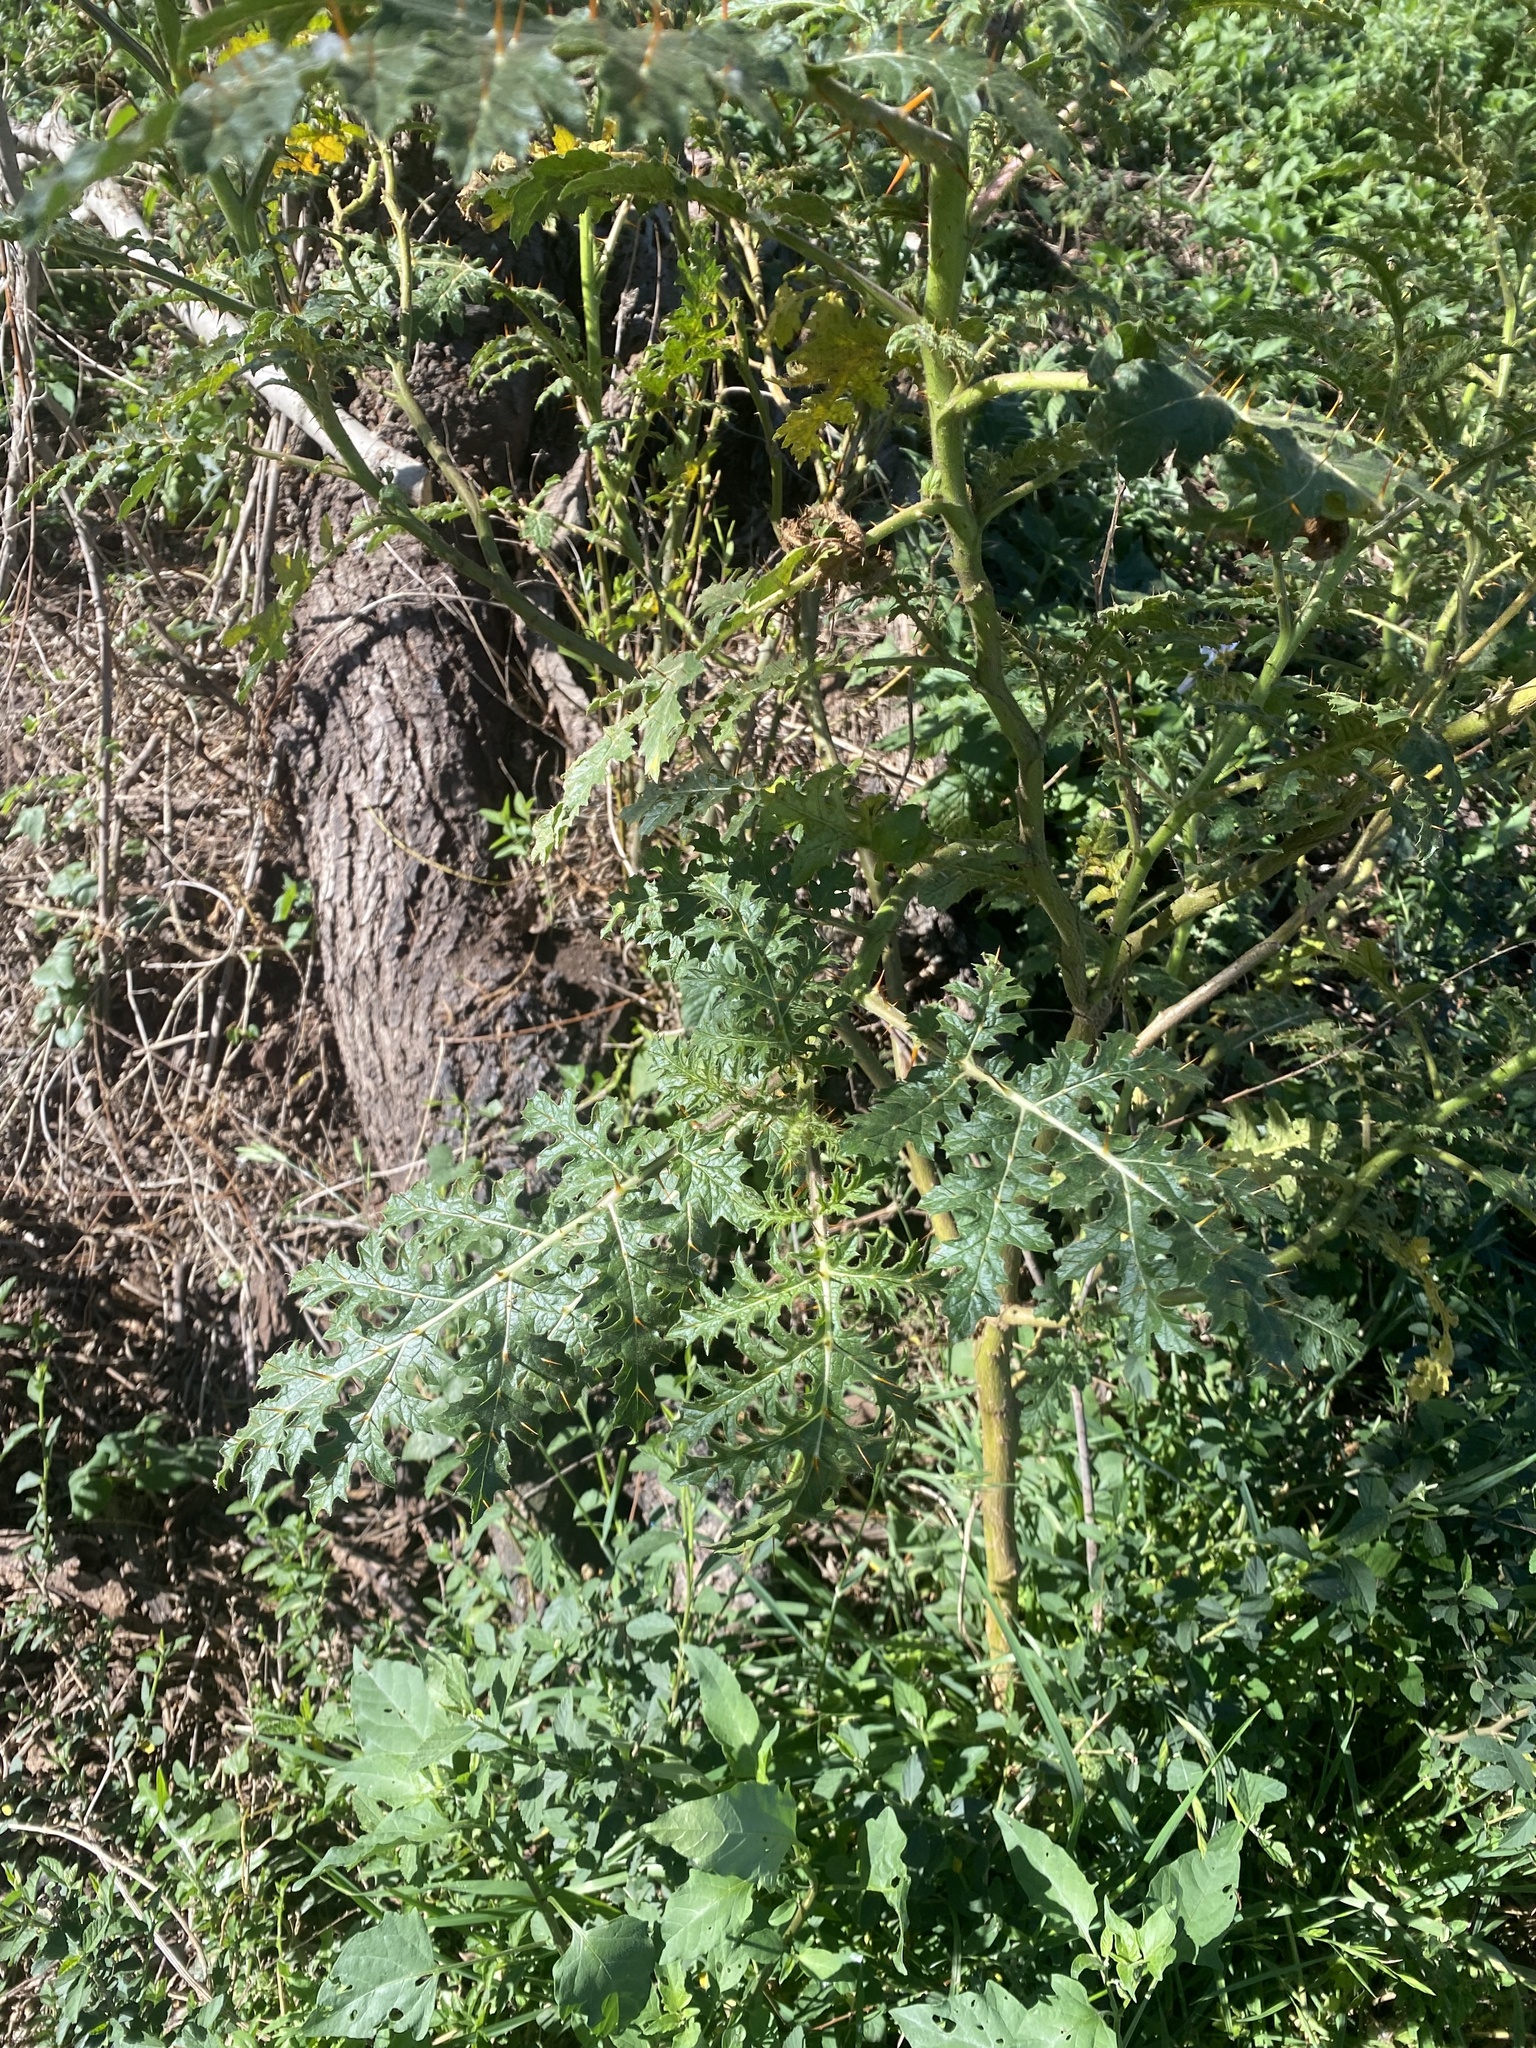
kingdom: Plantae
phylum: Tracheophyta
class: Magnoliopsida
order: Solanales
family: Solanaceae
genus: Solanum
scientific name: Solanum sisymbriifolium
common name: Red buffalo-bur
